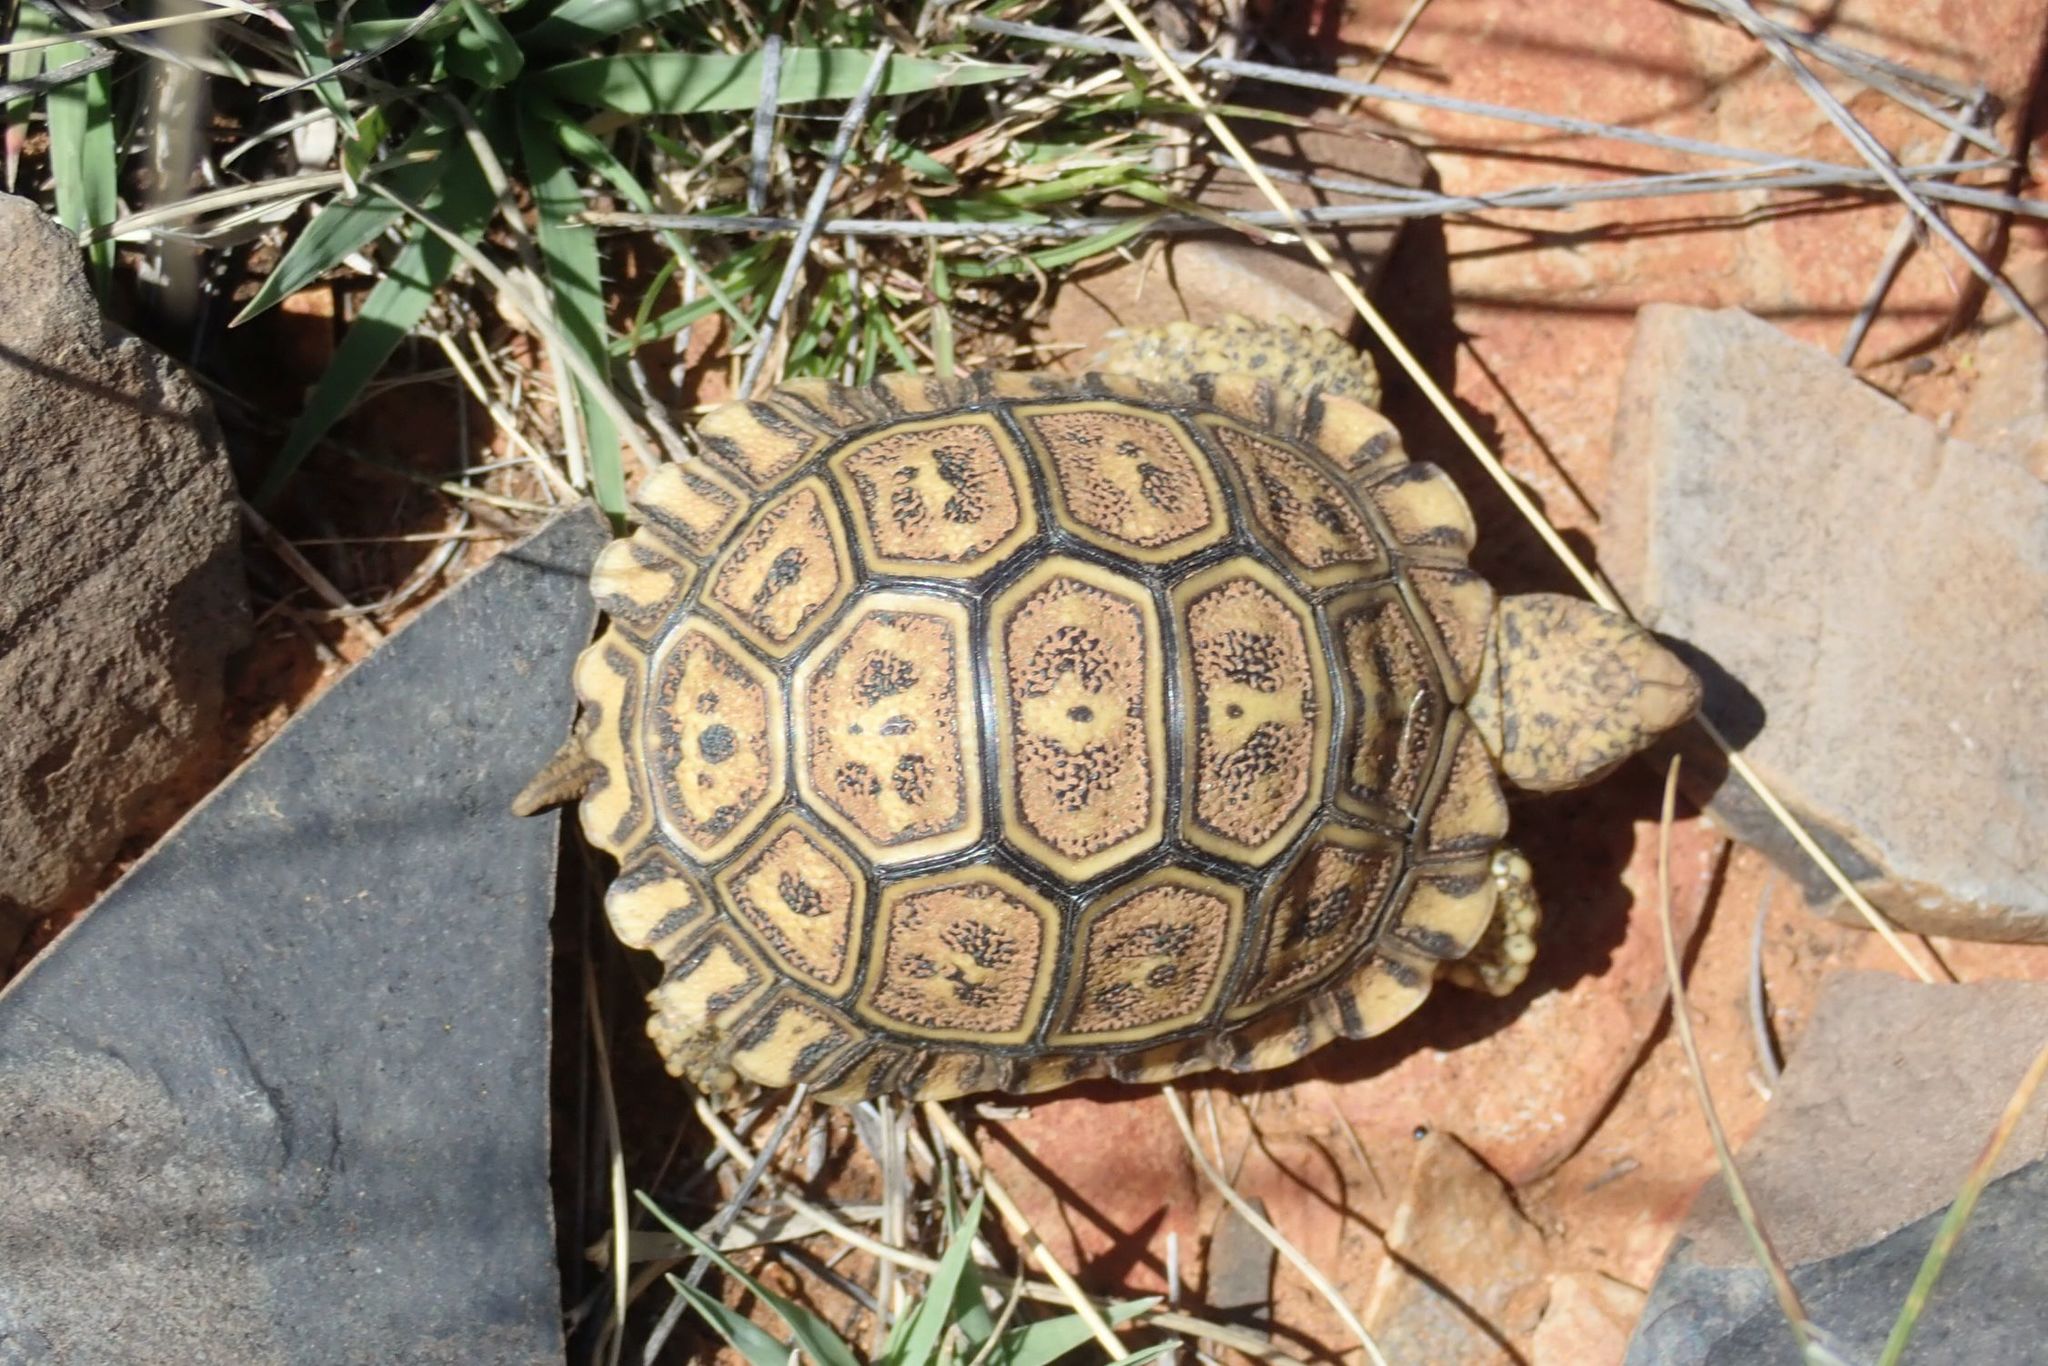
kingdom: Animalia
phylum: Chordata
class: Testudines
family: Testudinidae
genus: Stigmochelys
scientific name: Stigmochelys pardalis
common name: Leopard tortoise
